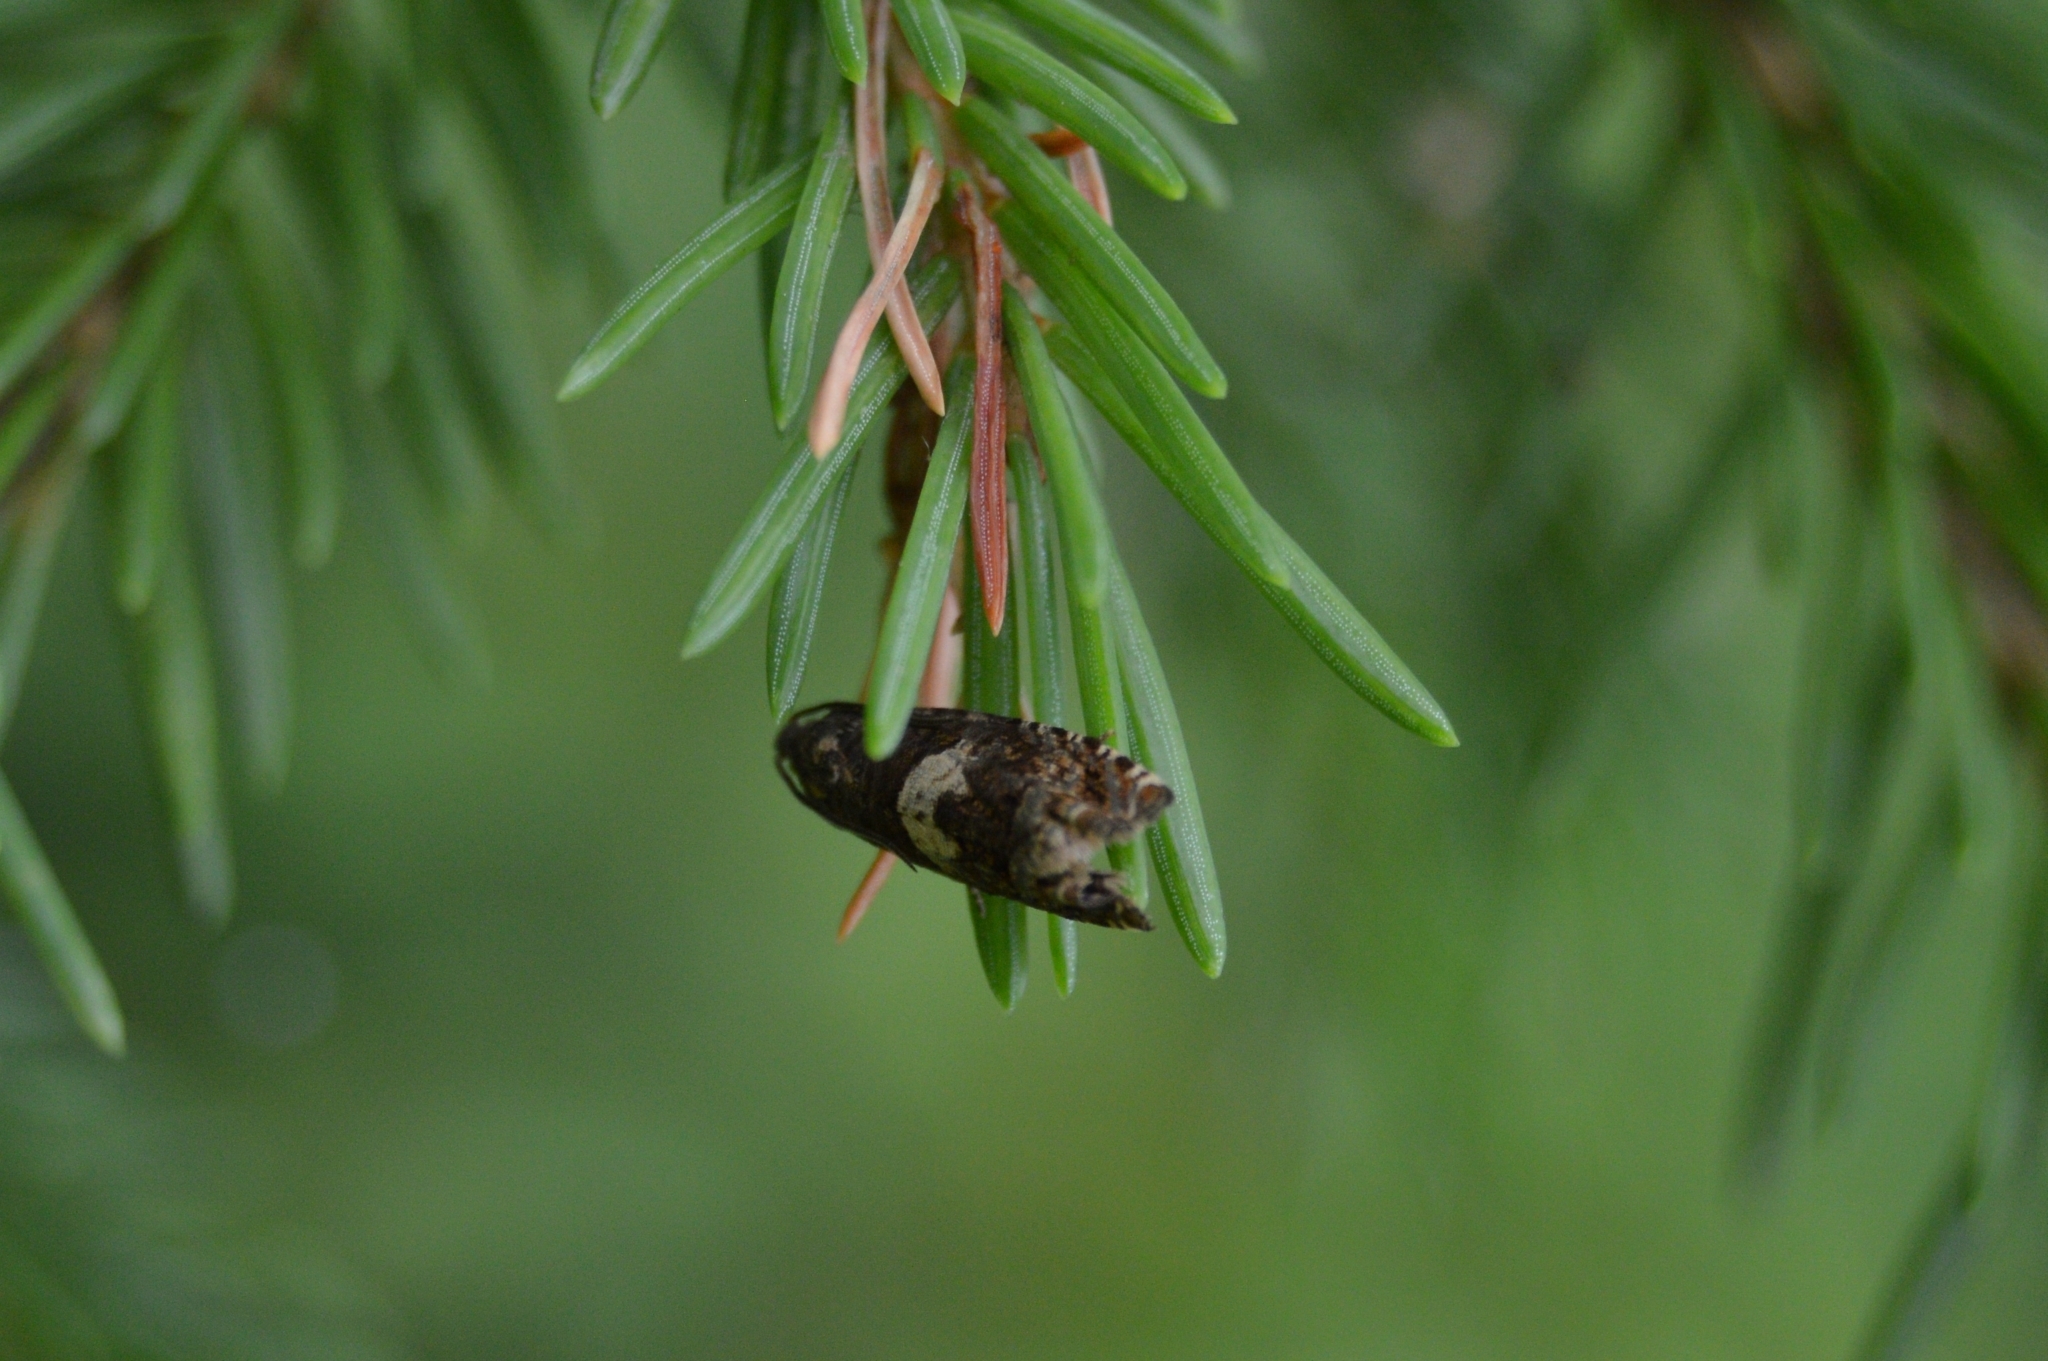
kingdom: Animalia
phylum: Arthropoda
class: Insecta
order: Lepidoptera
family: Tortricidae
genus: Epiblema
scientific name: Epiblema sticticana
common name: Colt's-foot bell
